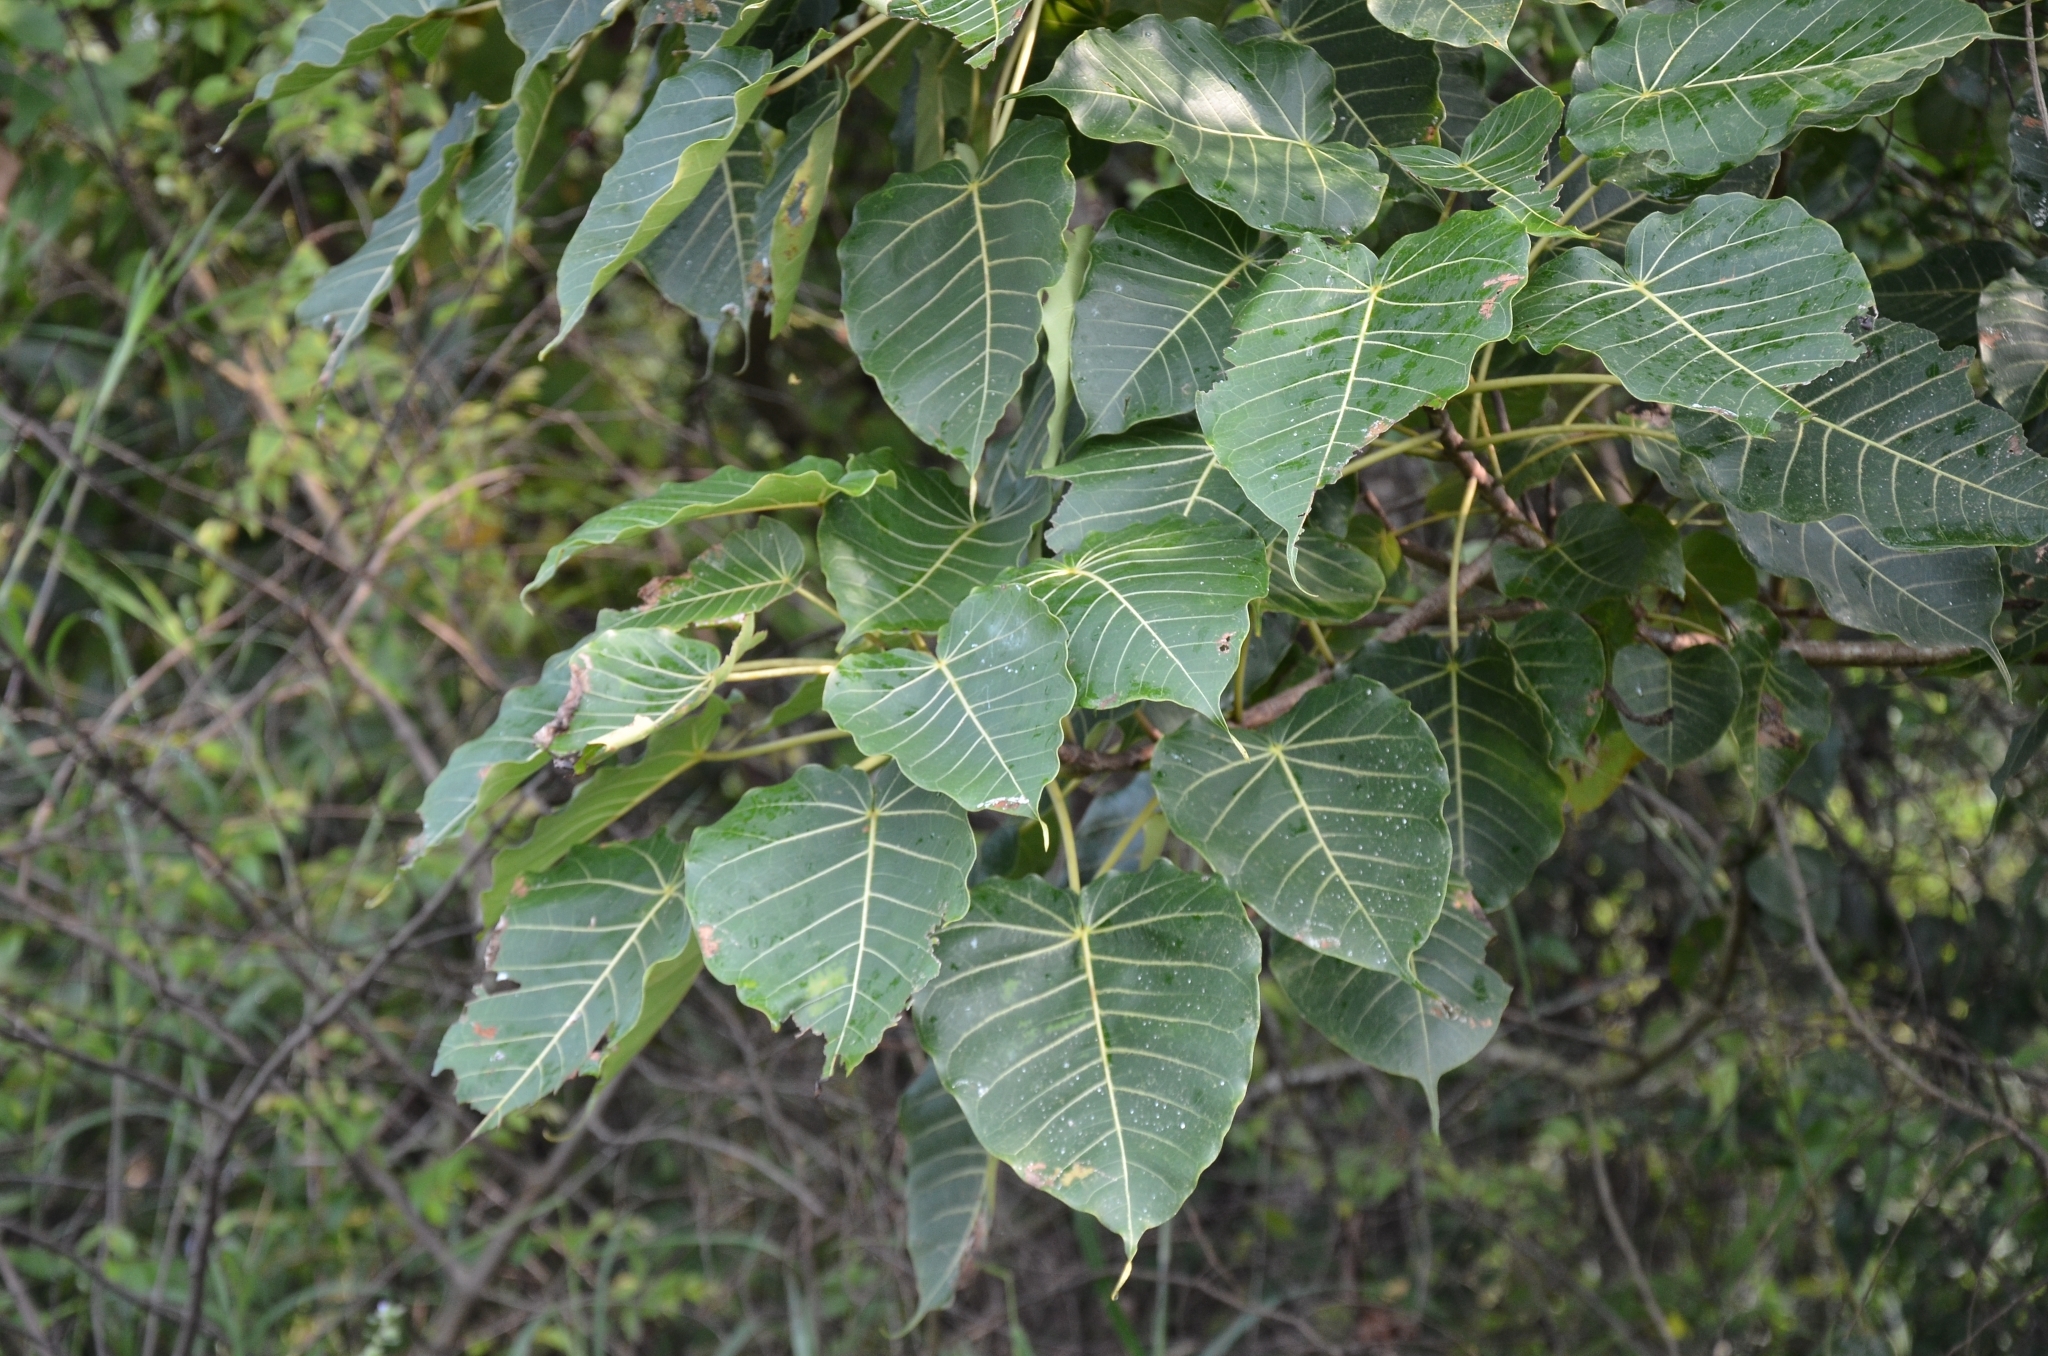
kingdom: Plantae
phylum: Tracheophyta
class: Magnoliopsida
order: Rosales
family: Moraceae
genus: Ficus
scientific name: Ficus arnottiana
